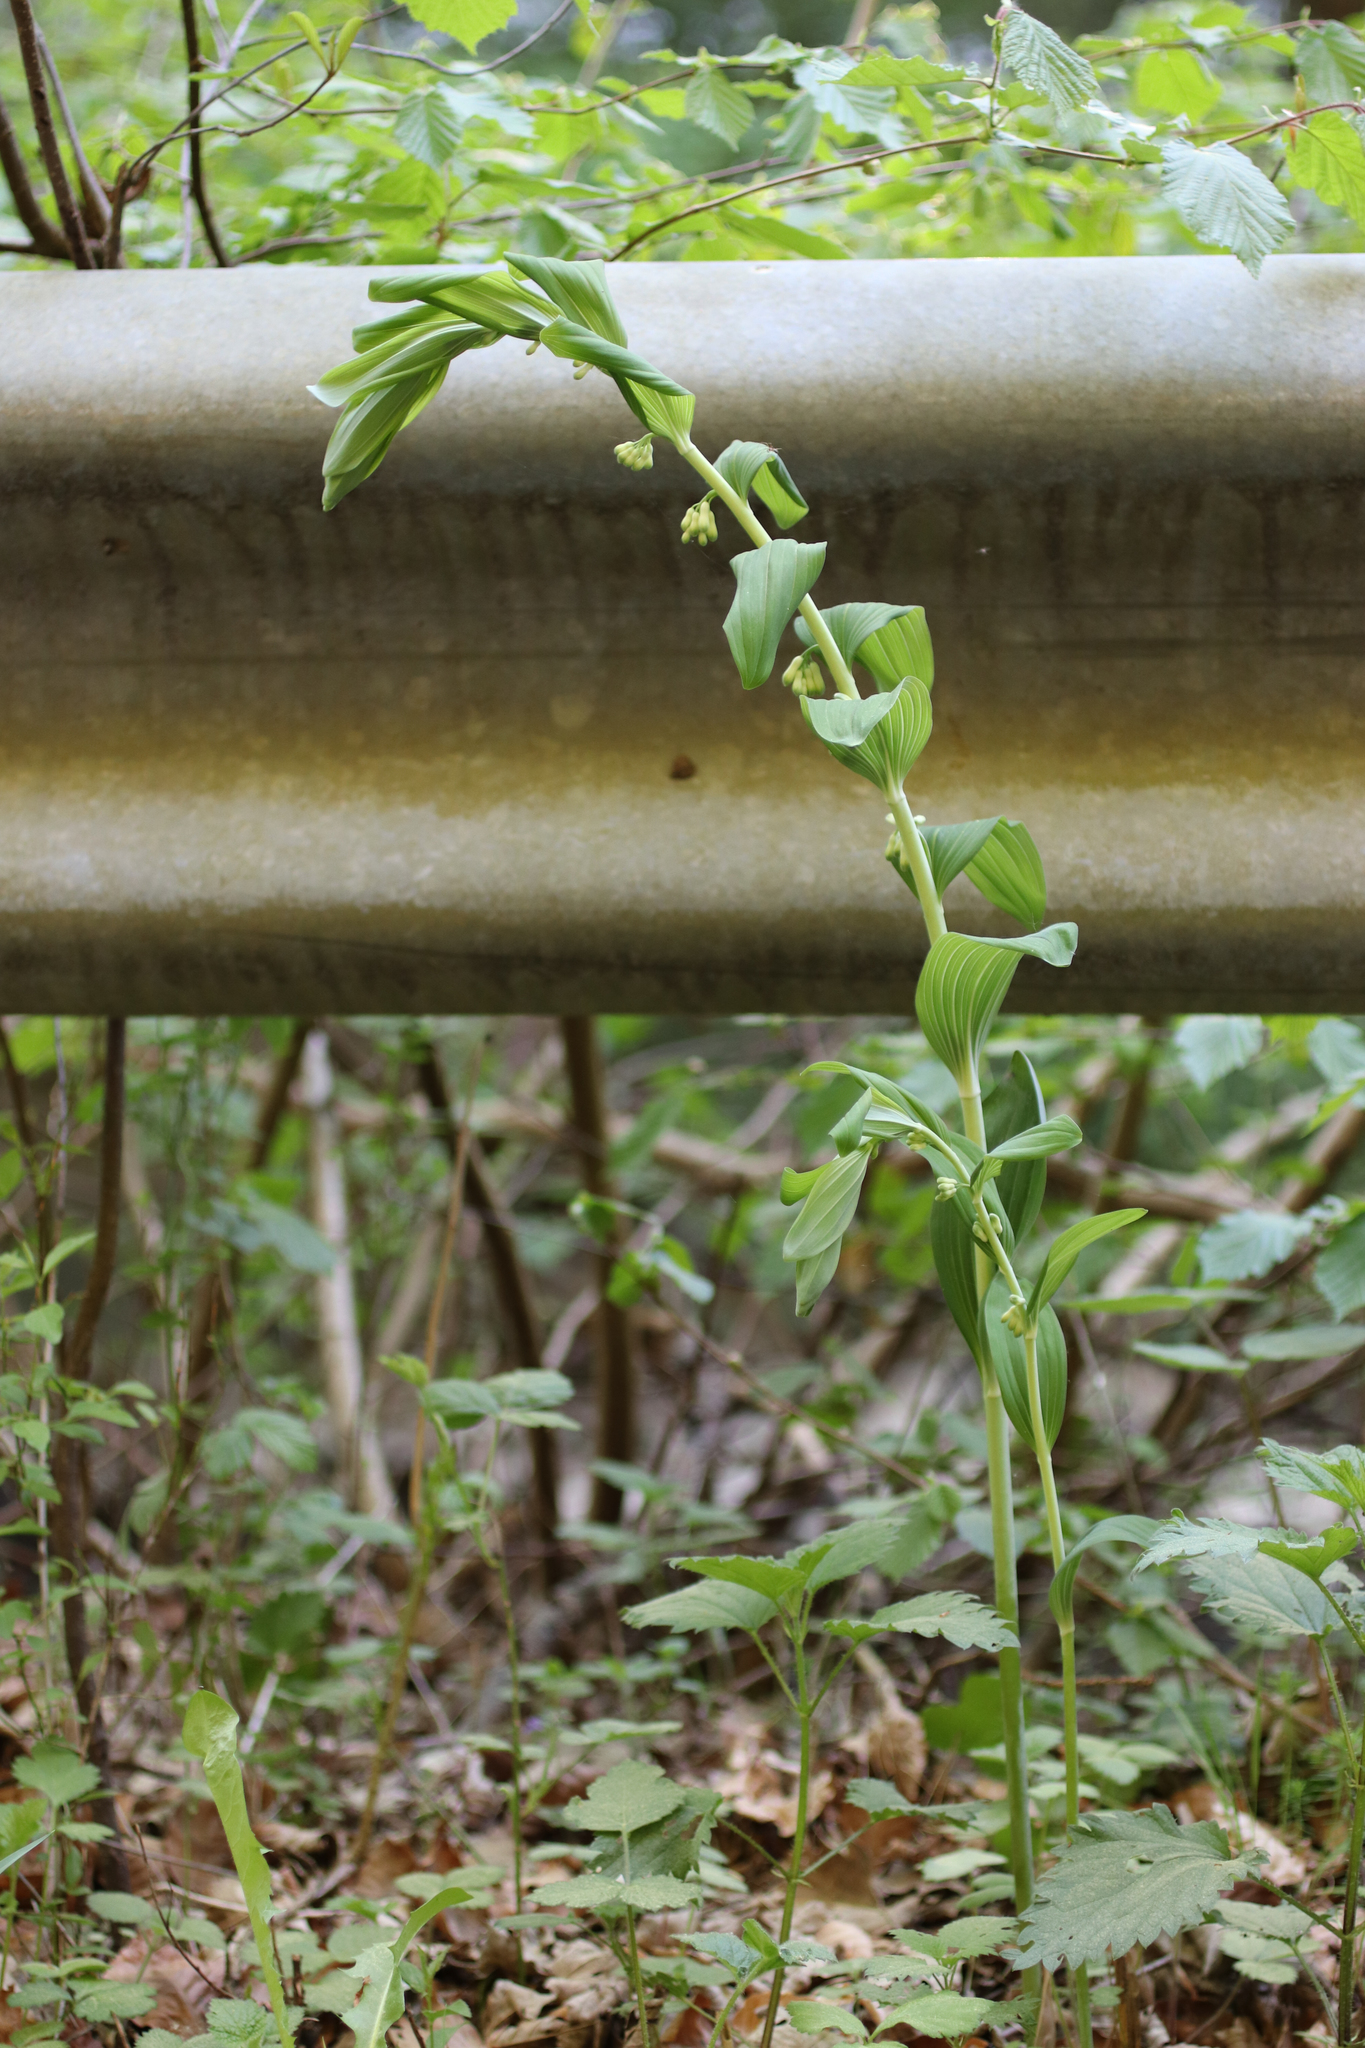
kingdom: Plantae
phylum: Tracheophyta
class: Liliopsida
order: Asparagales
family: Asparagaceae
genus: Polygonatum
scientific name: Polygonatum multiflorum
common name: Solomon's-seal
